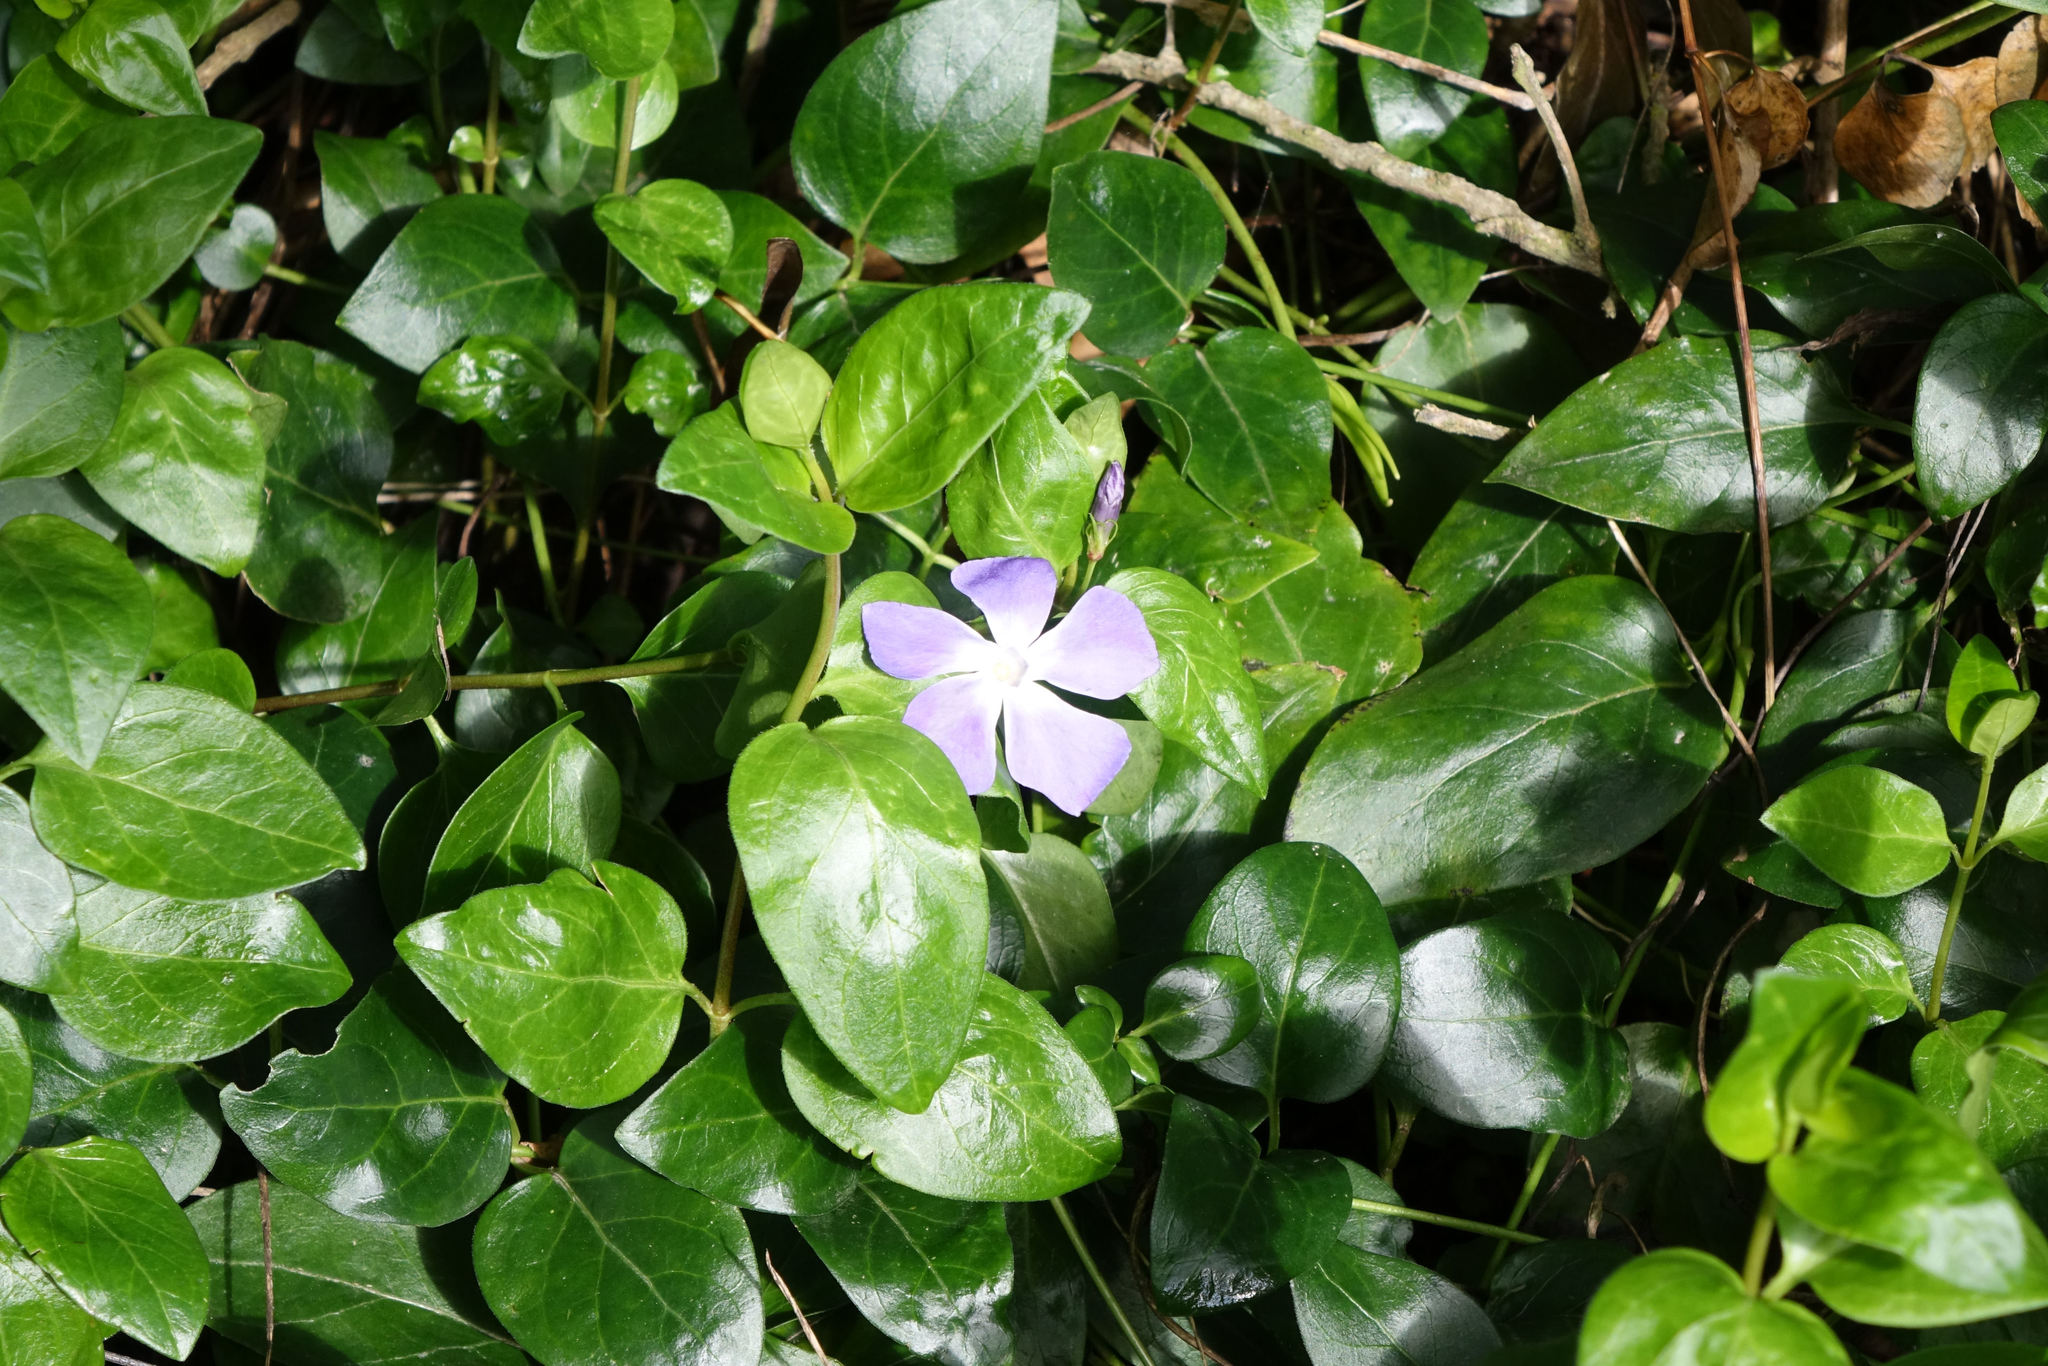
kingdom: Plantae
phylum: Tracheophyta
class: Magnoliopsida
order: Gentianales
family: Apocynaceae
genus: Vinca
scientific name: Vinca major
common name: Greater periwinkle
